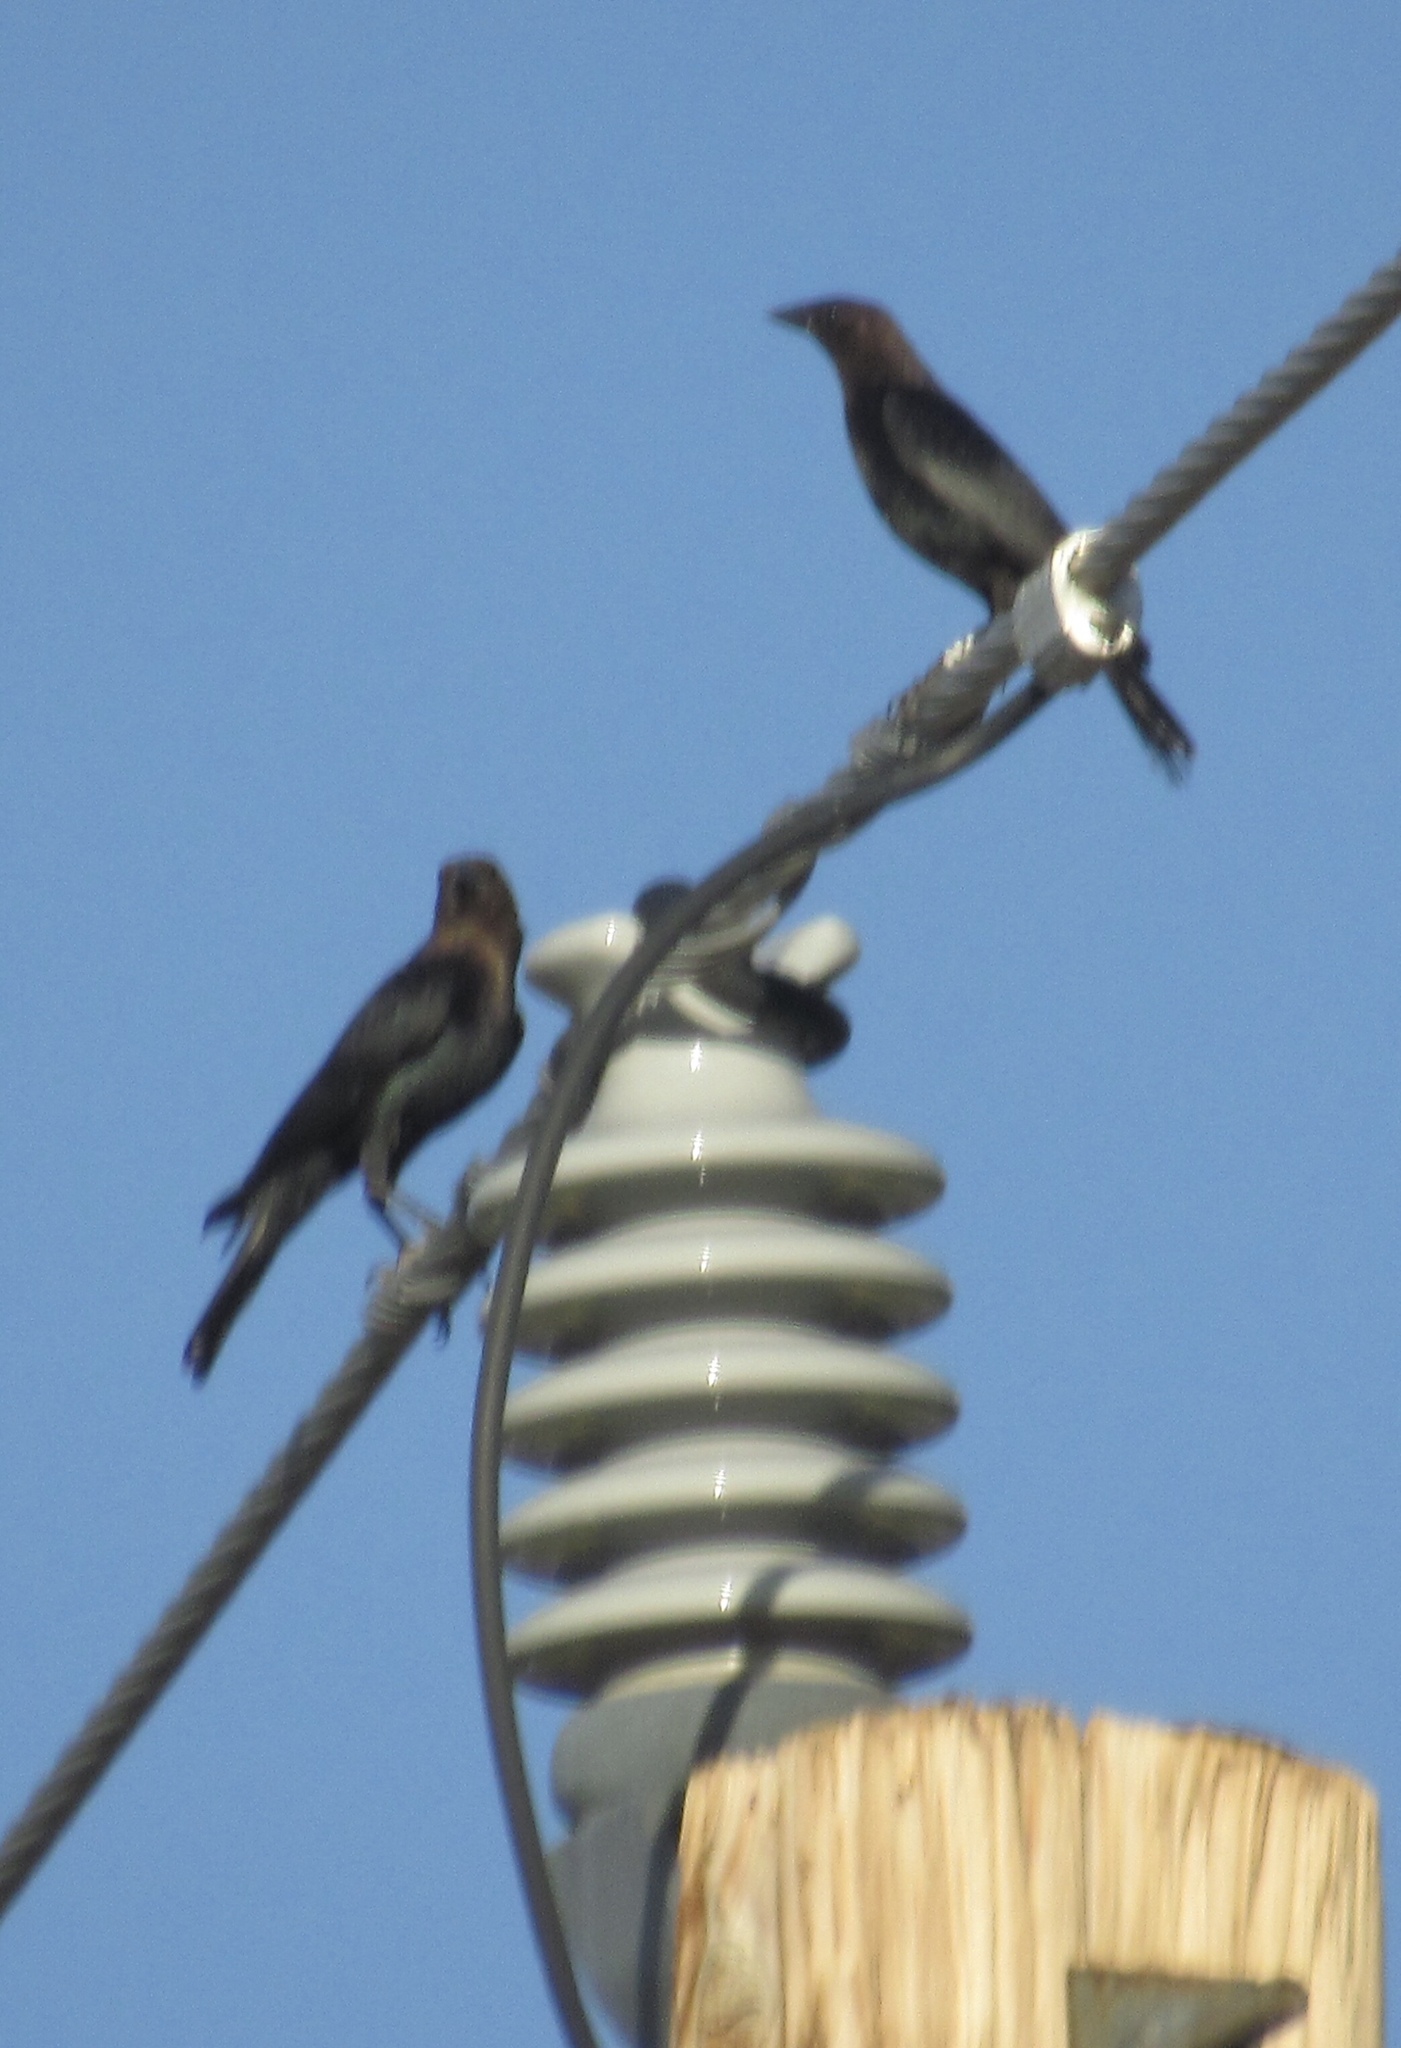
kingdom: Animalia
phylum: Chordata
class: Aves
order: Passeriformes
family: Icteridae
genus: Molothrus
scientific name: Molothrus ater
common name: Brown-headed cowbird
